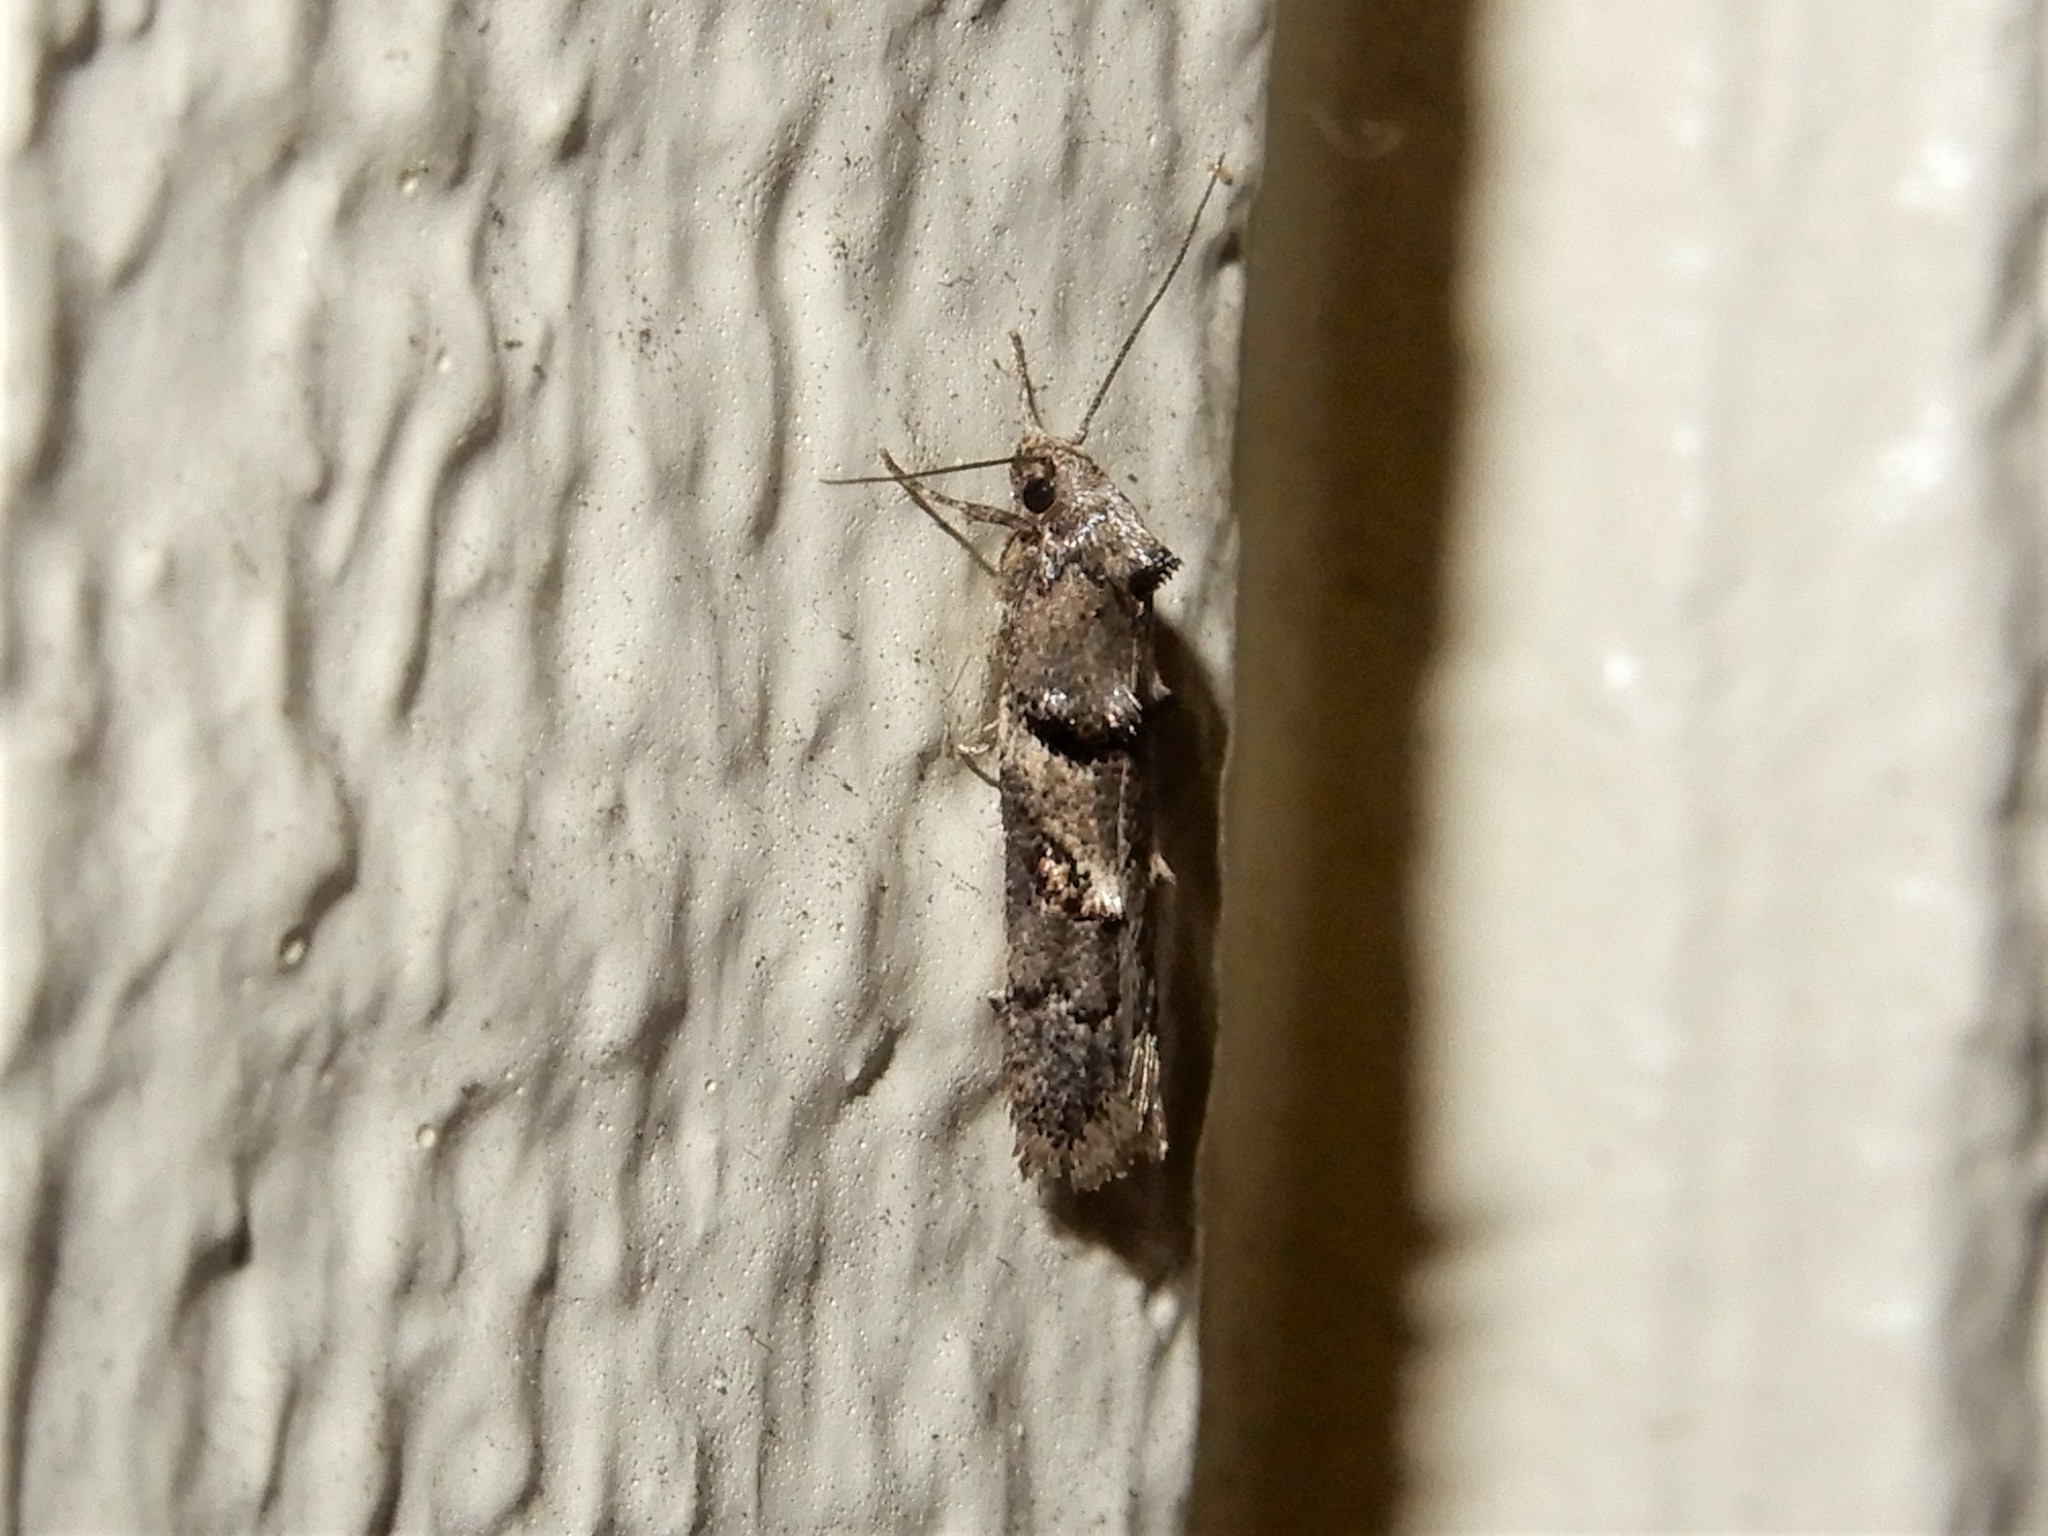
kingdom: Animalia
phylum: Arthropoda
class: Insecta
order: Lepidoptera
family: Oecophoridae
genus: Trachypepla
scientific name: Trachypepla contritella
